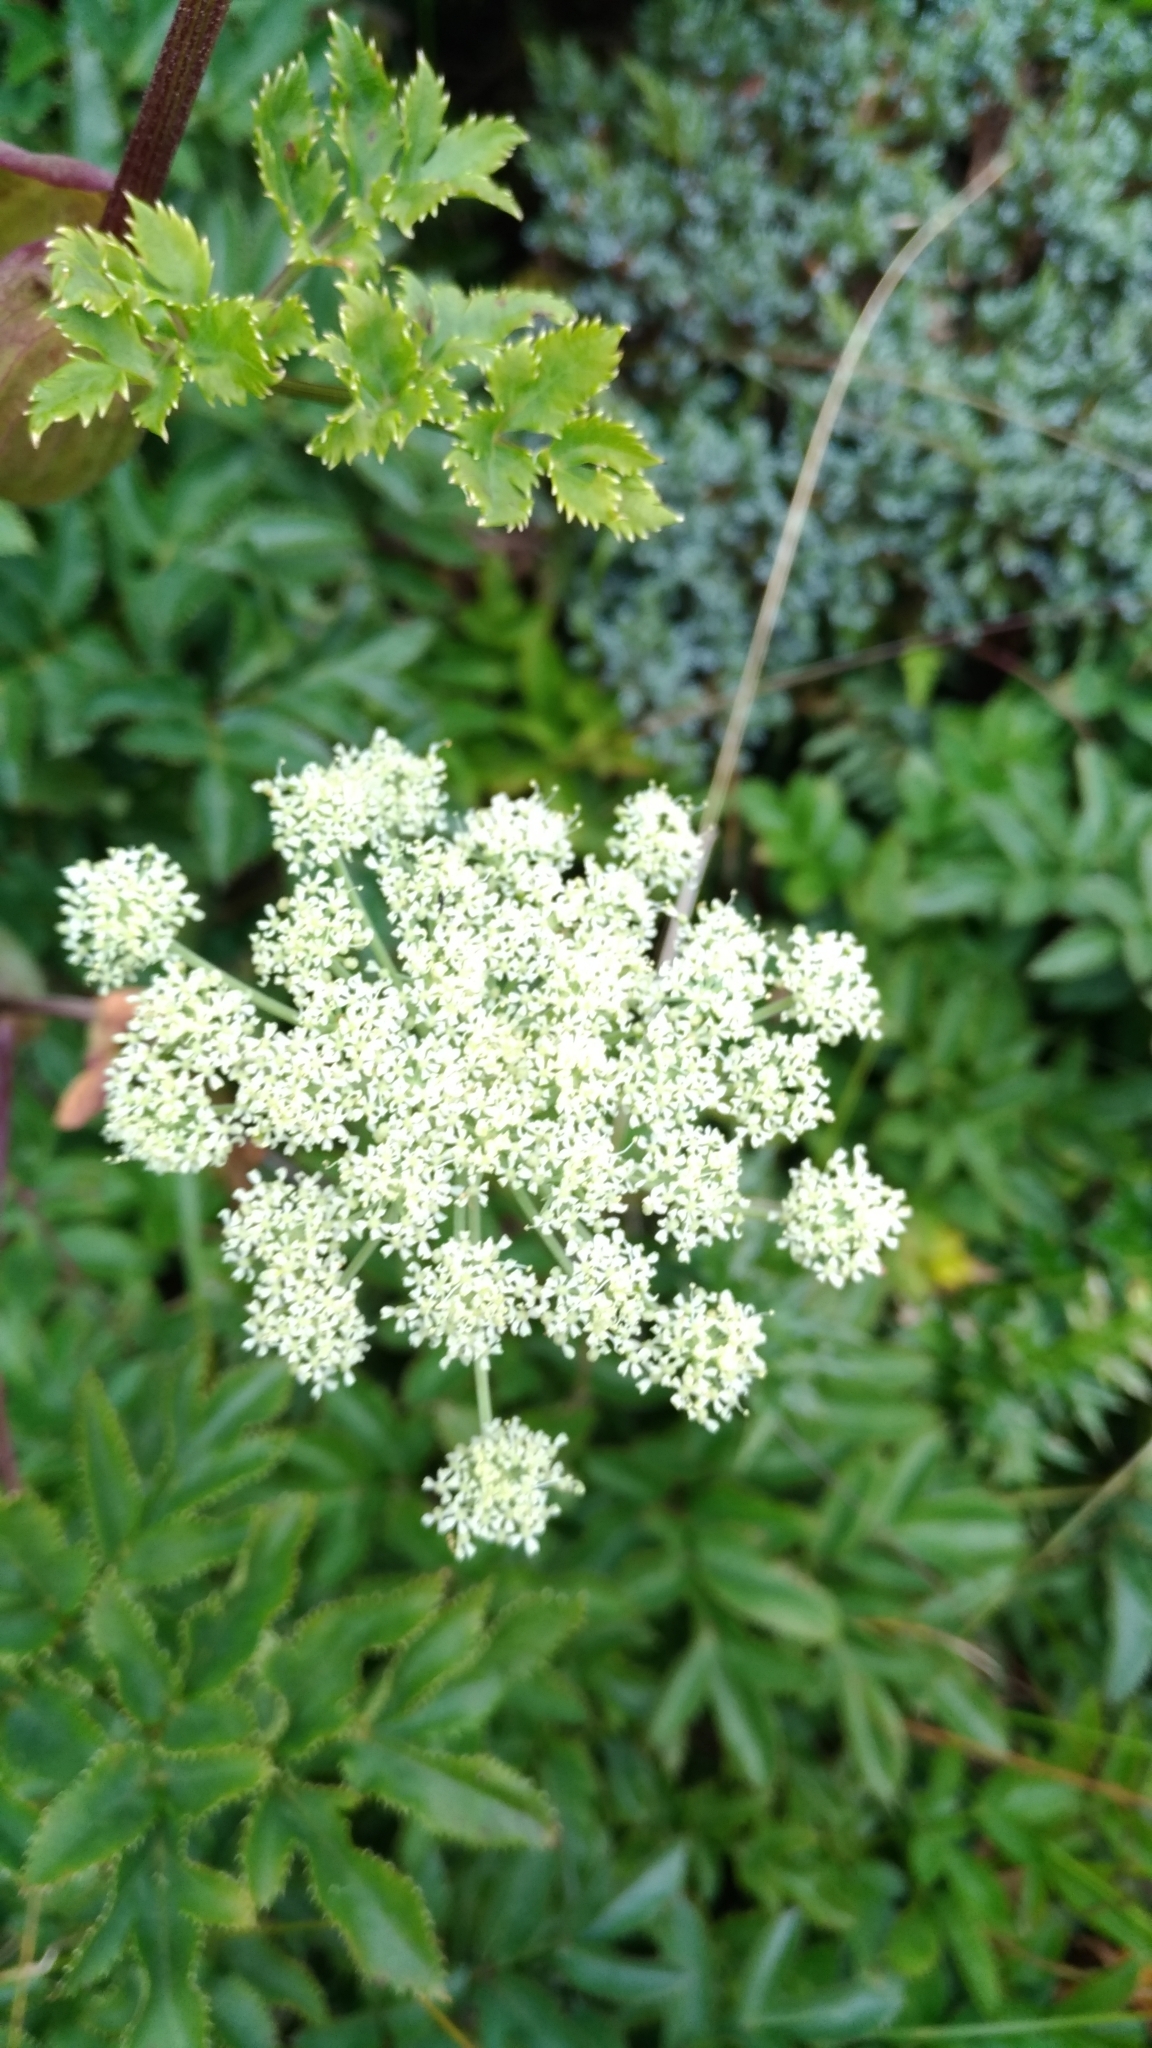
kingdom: Plantae
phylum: Tracheophyta
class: Magnoliopsida
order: Apiales
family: Apiaceae
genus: Angelica
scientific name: Angelica morrisonicola
